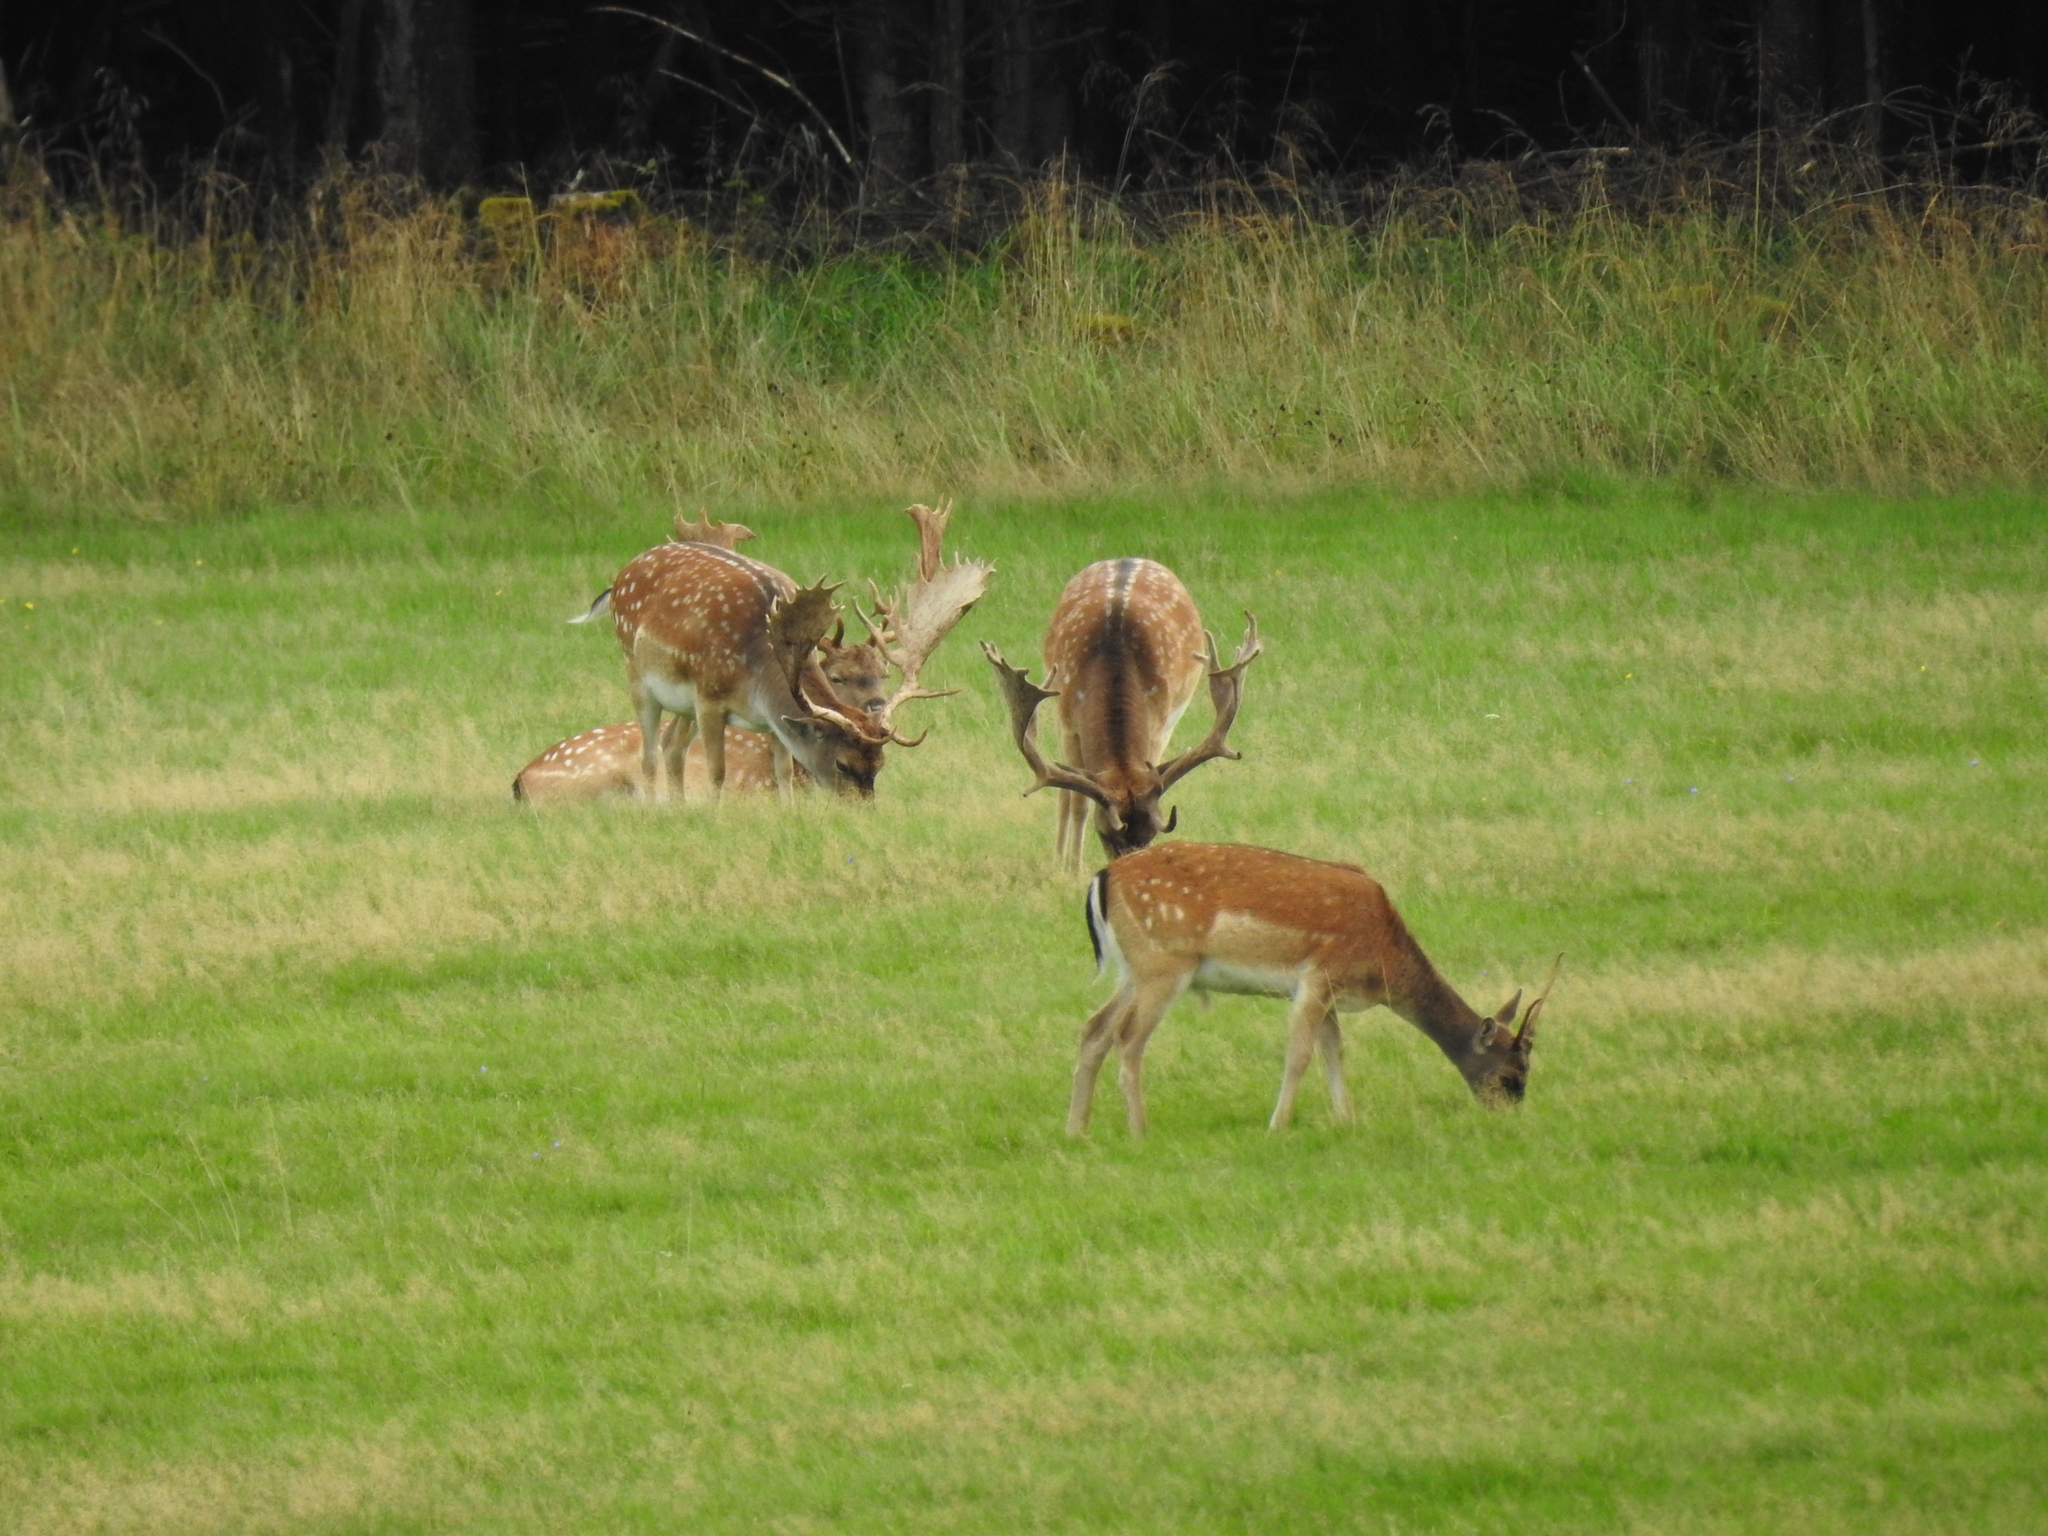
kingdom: Animalia
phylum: Chordata
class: Mammalia
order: Artiodactyla
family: Cervidae
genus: Dama
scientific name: Dama dama
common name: Fallow deer
